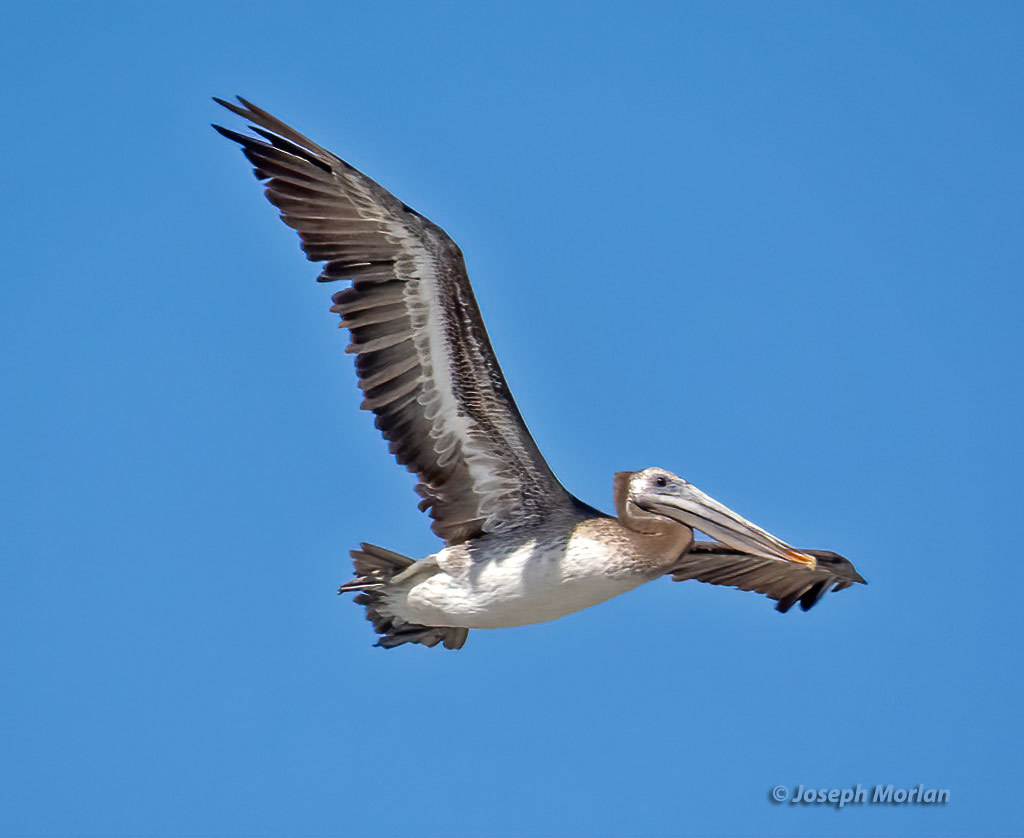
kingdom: Animalia
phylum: Chordata
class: Aves
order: Pelecaniformes
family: Pelecanidae
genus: Pelecanus
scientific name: Pelecanus occidentalis
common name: Brown pelican
